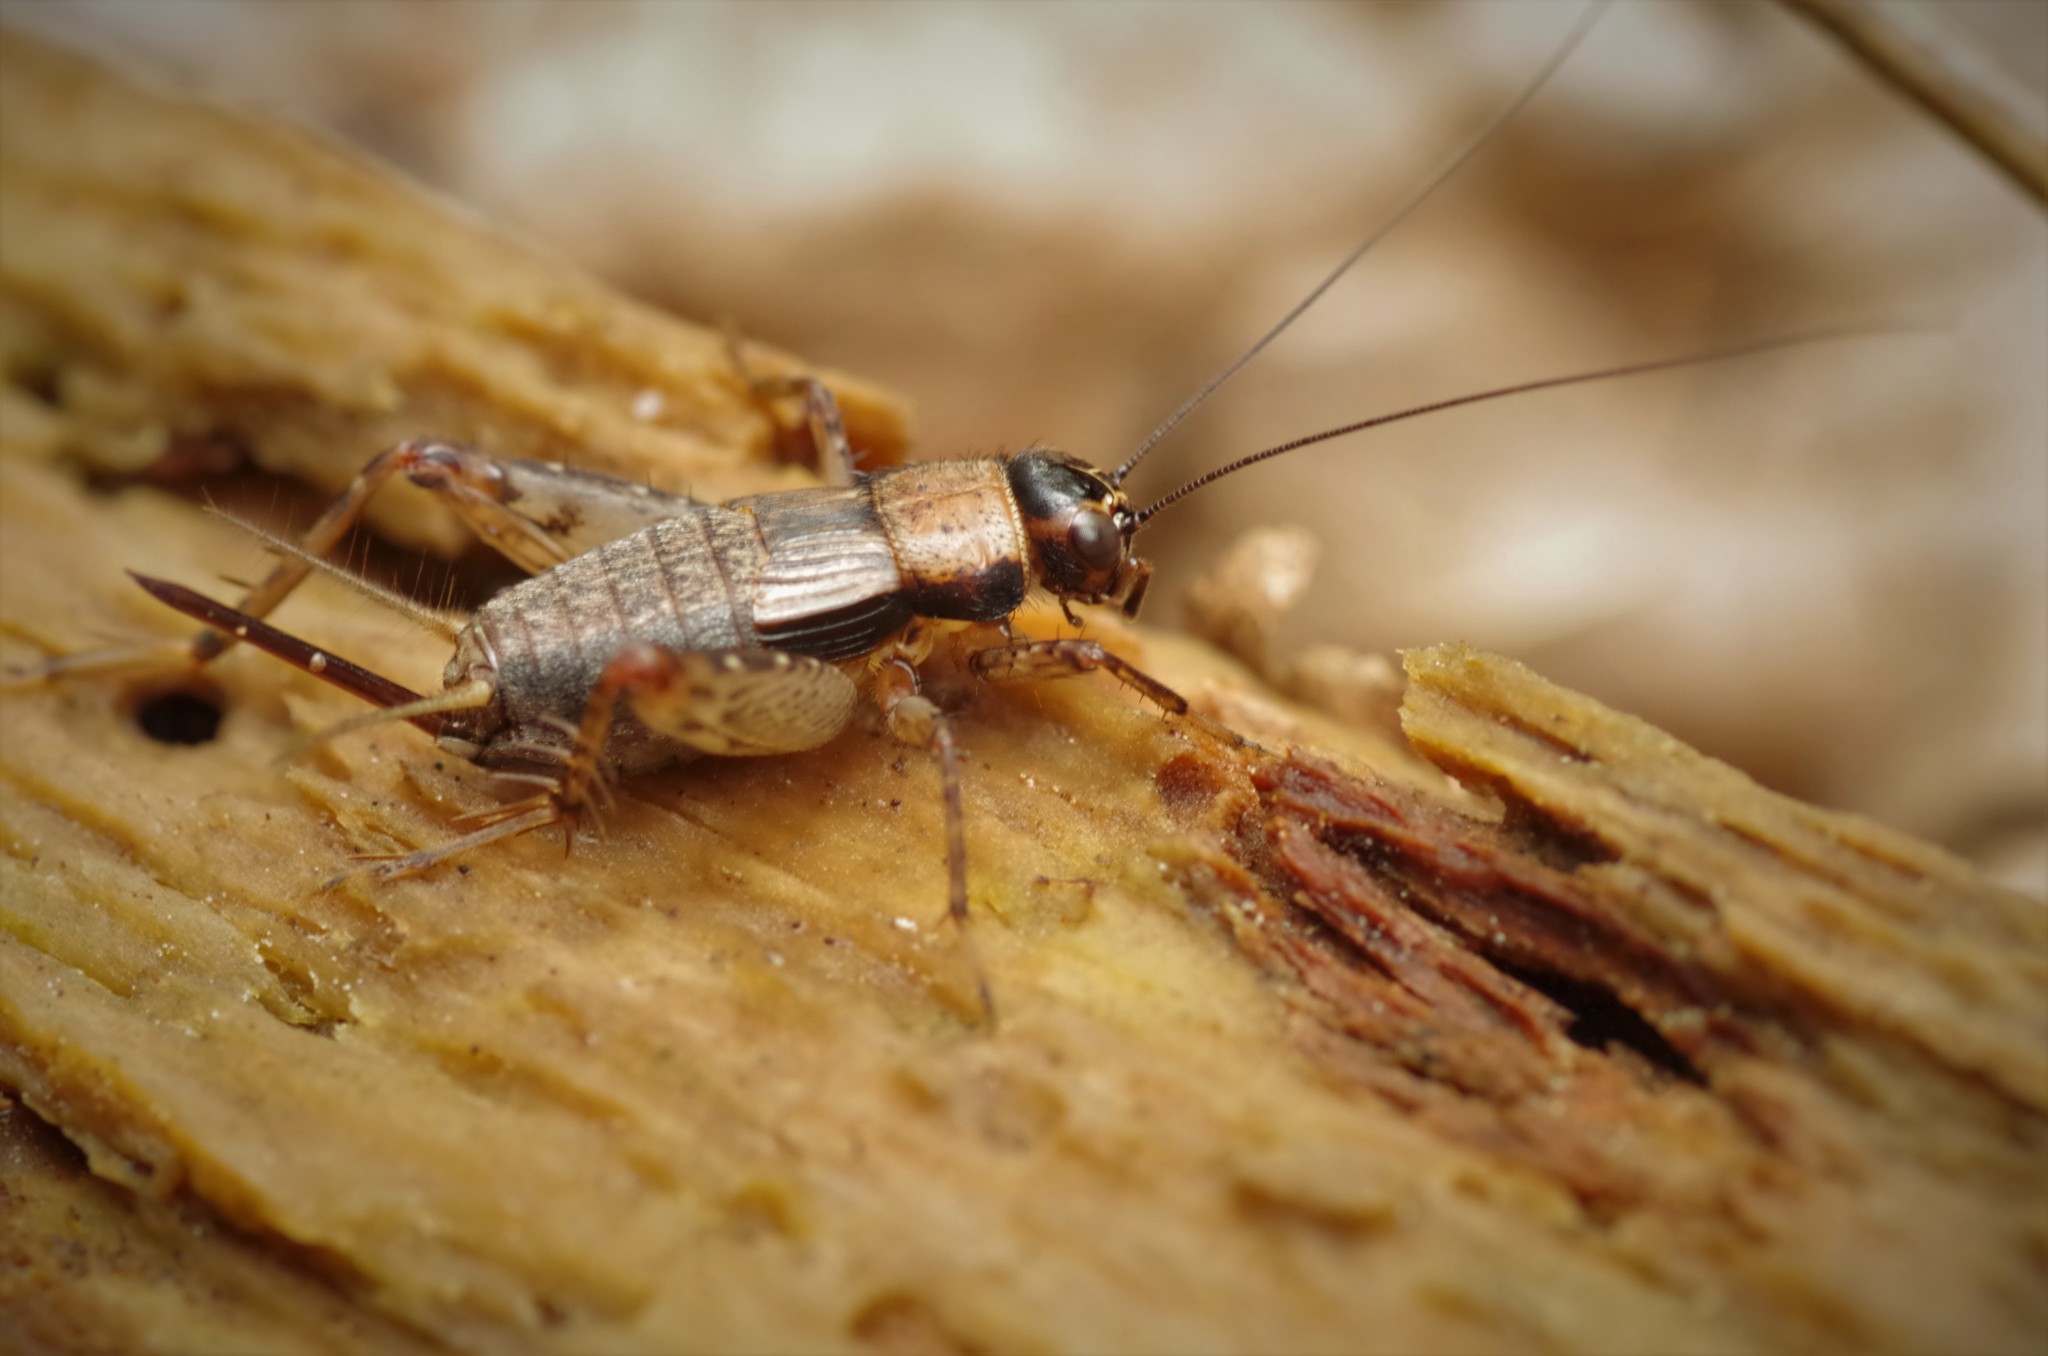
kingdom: Animalia
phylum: Arthropoda
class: Insecta
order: Orthoptera
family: Trigonidiidae
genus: Nemobius
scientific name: Nemobius sylvestris
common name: Wood-cricket
